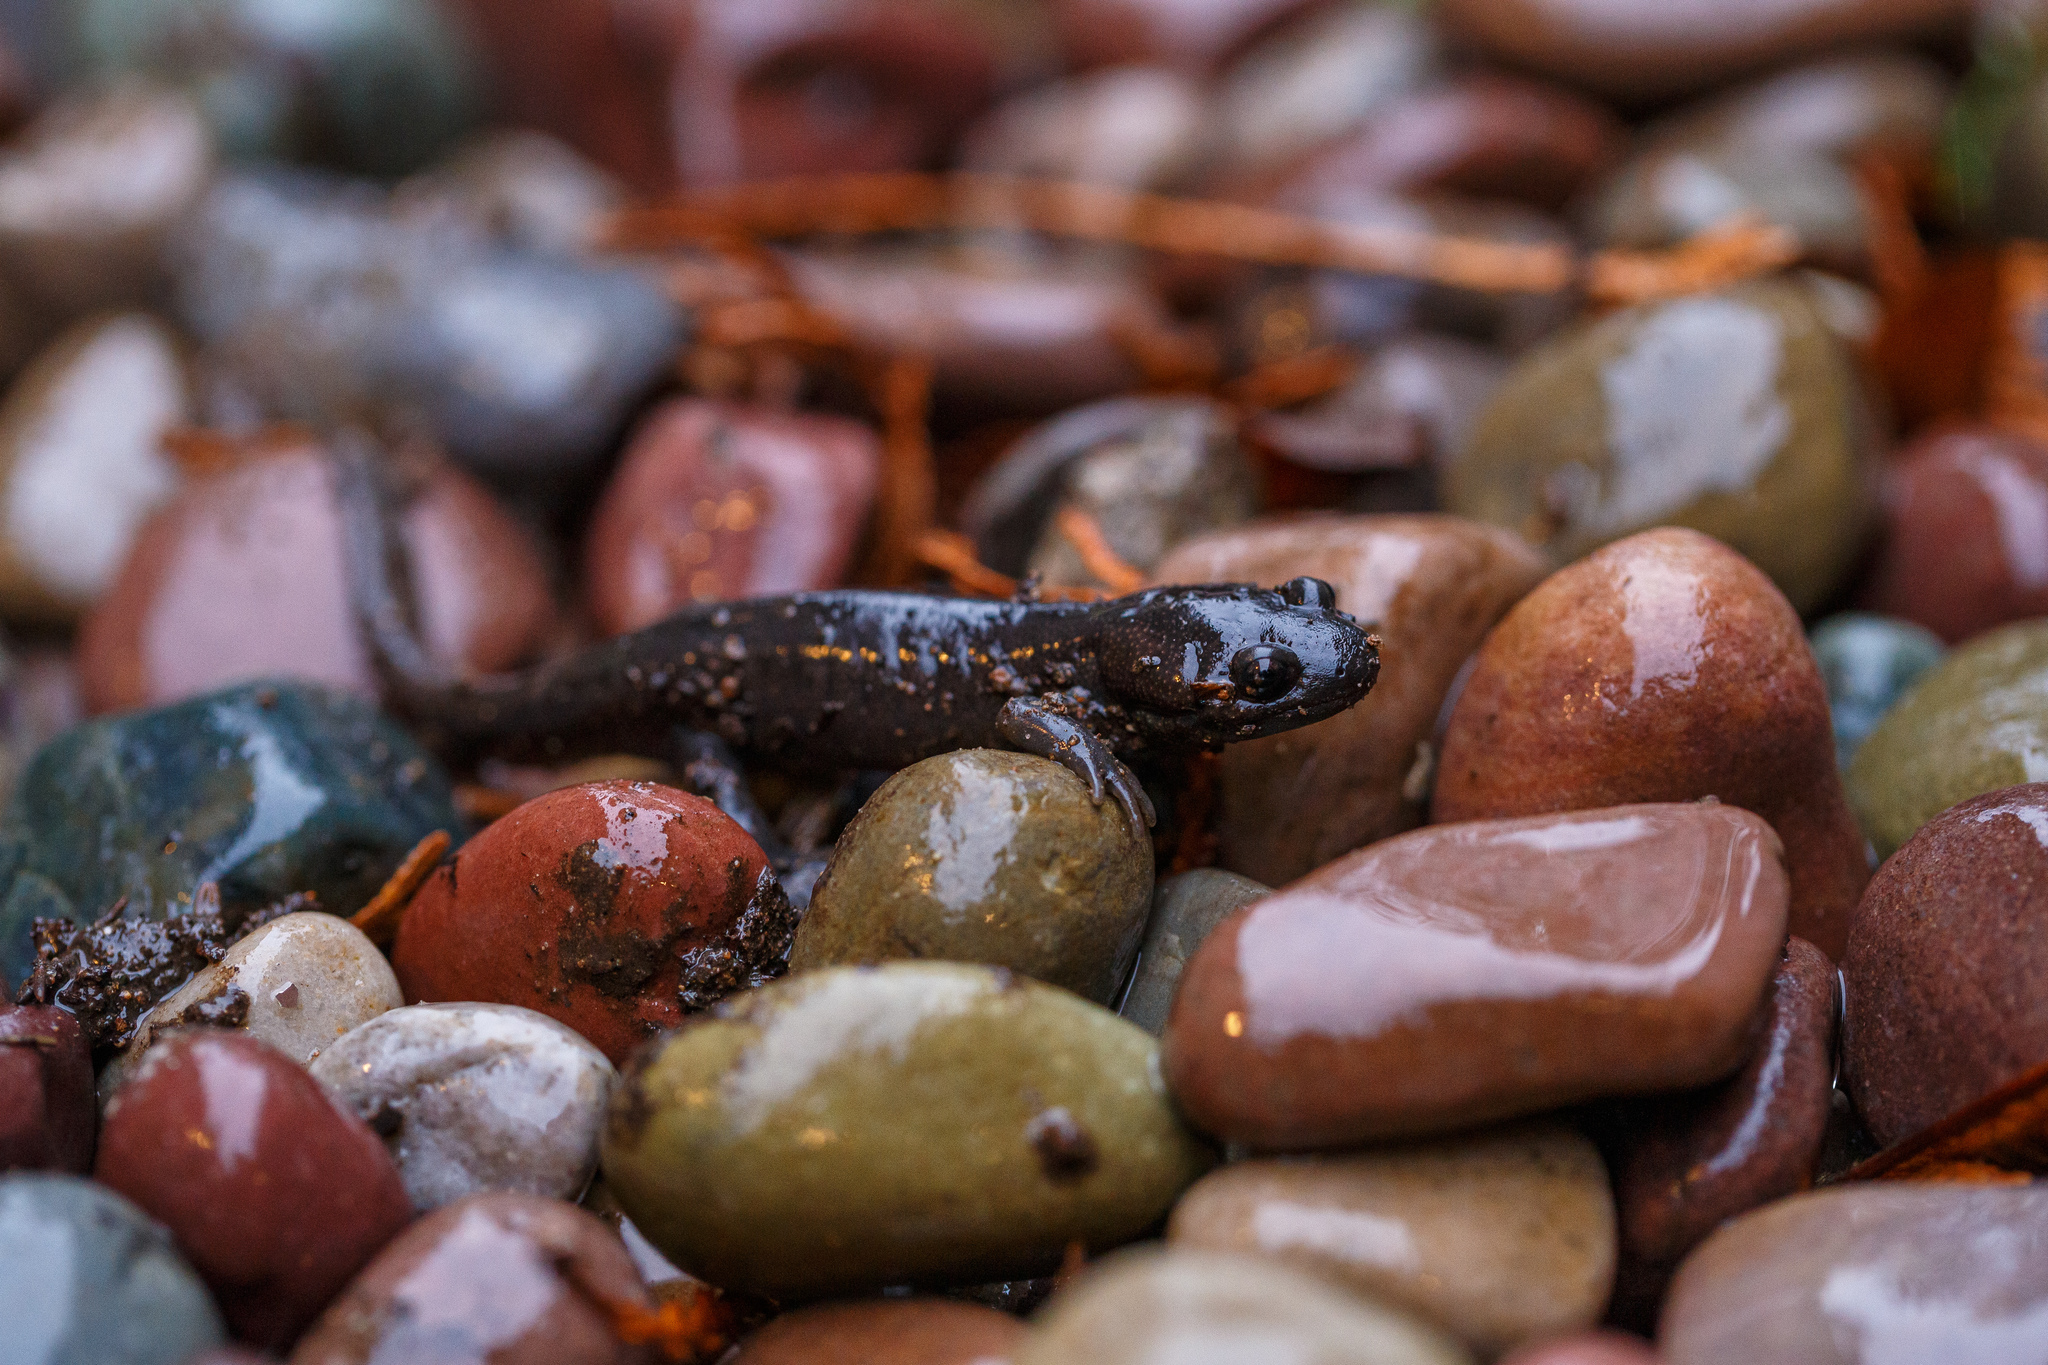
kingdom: Animalia
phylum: Chordata
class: Amphibia
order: Caudata
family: Ambystomatidae
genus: Ambystoma
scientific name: Ambystoma gracile
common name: Northwestern salamander
